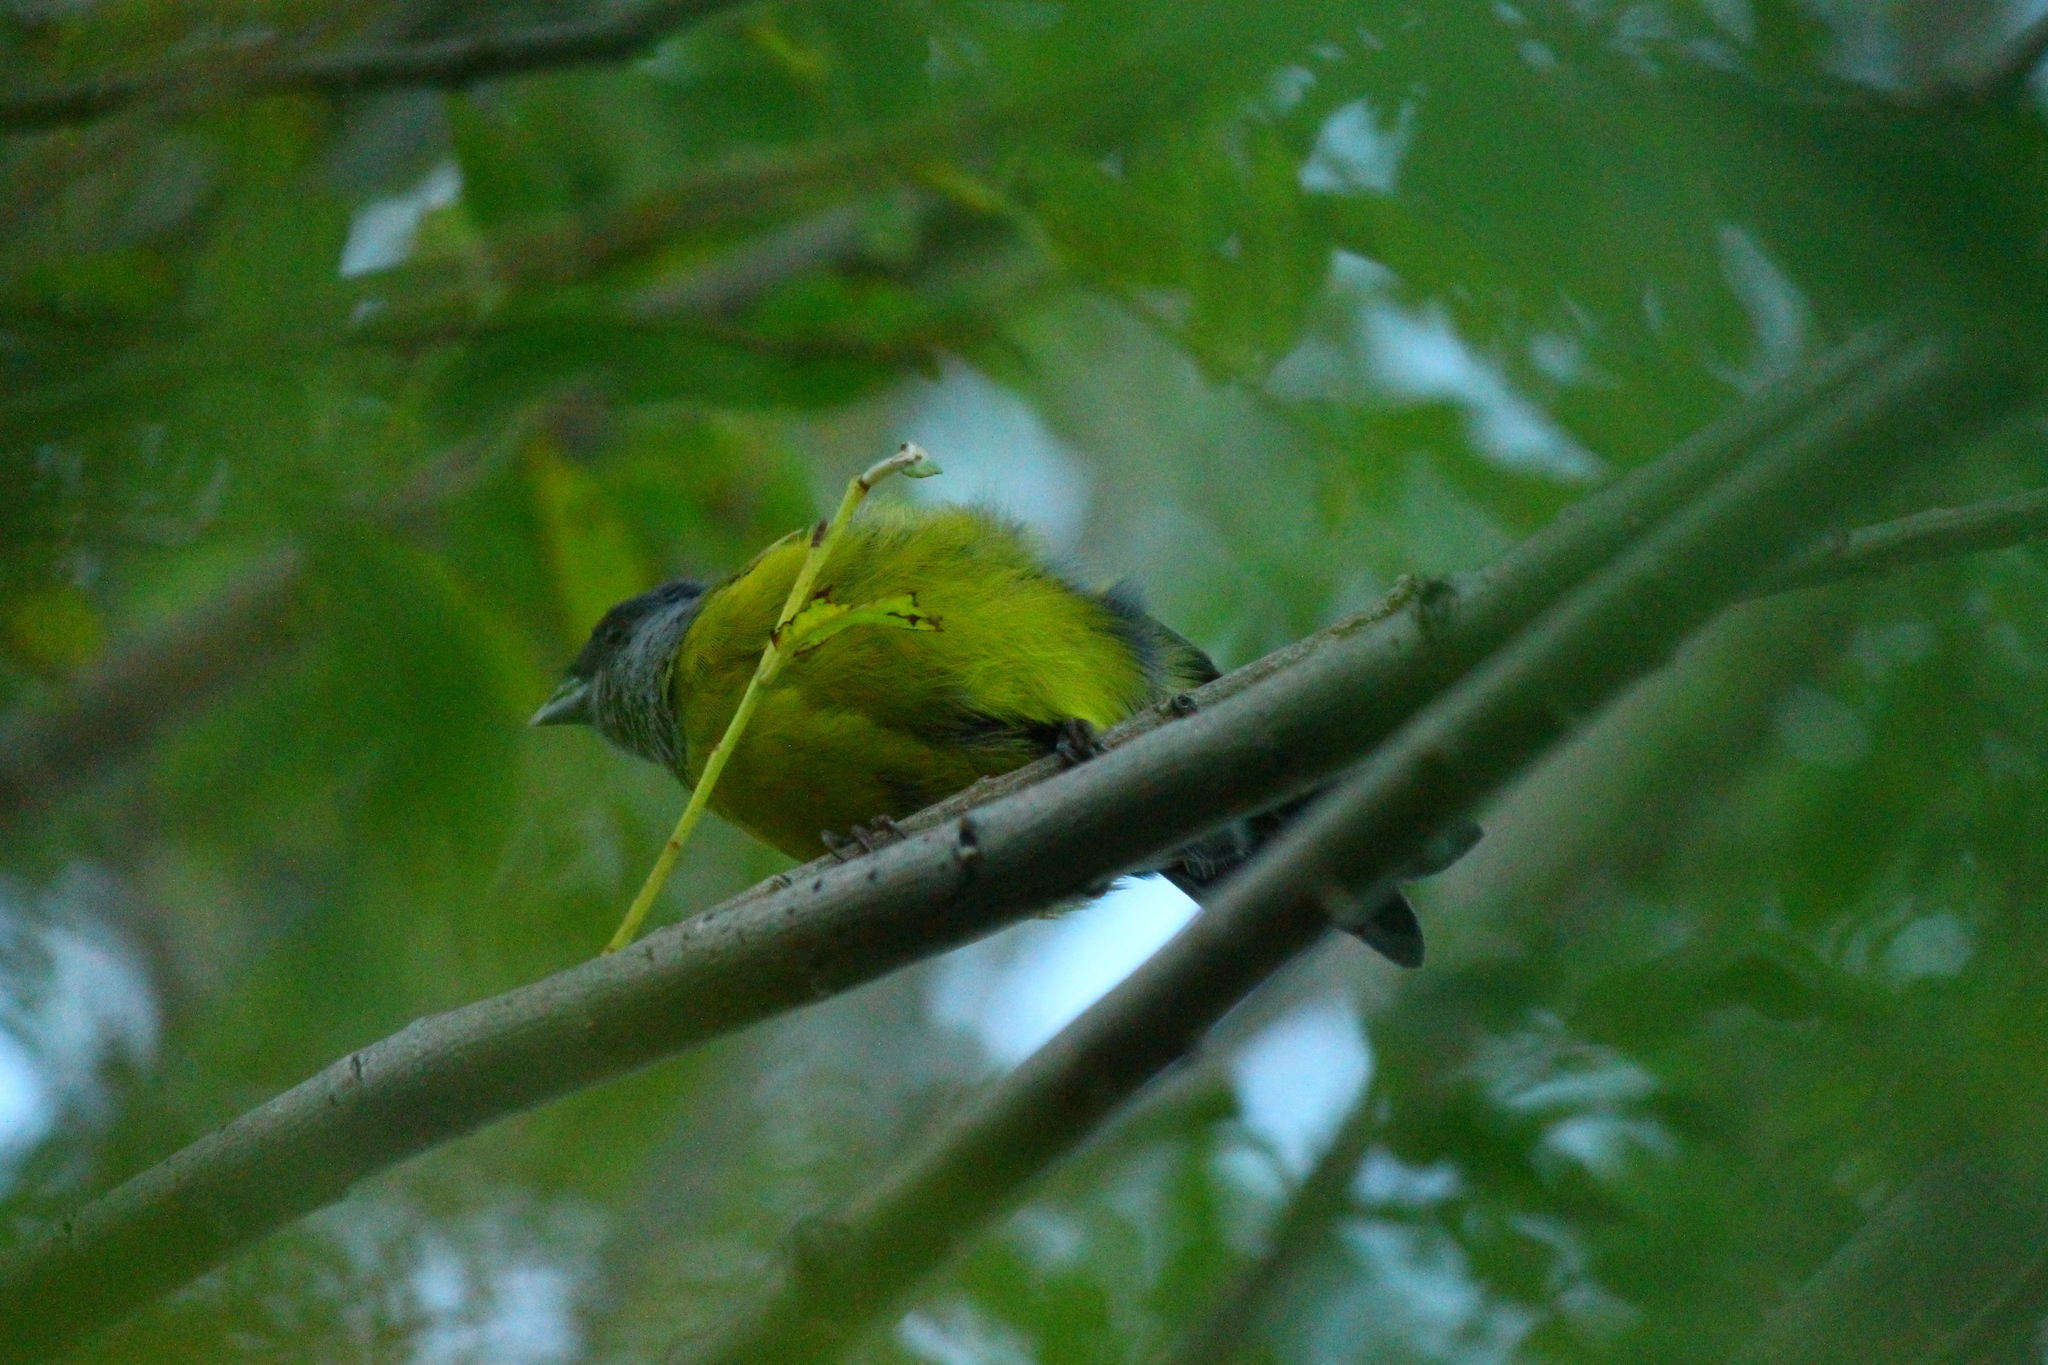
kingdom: Animalia
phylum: Chordata
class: Aves
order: Passeriformes
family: Thraupidae
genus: Phrygilus
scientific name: Phrygilus patagonicus
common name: Patagonian sierra finch
